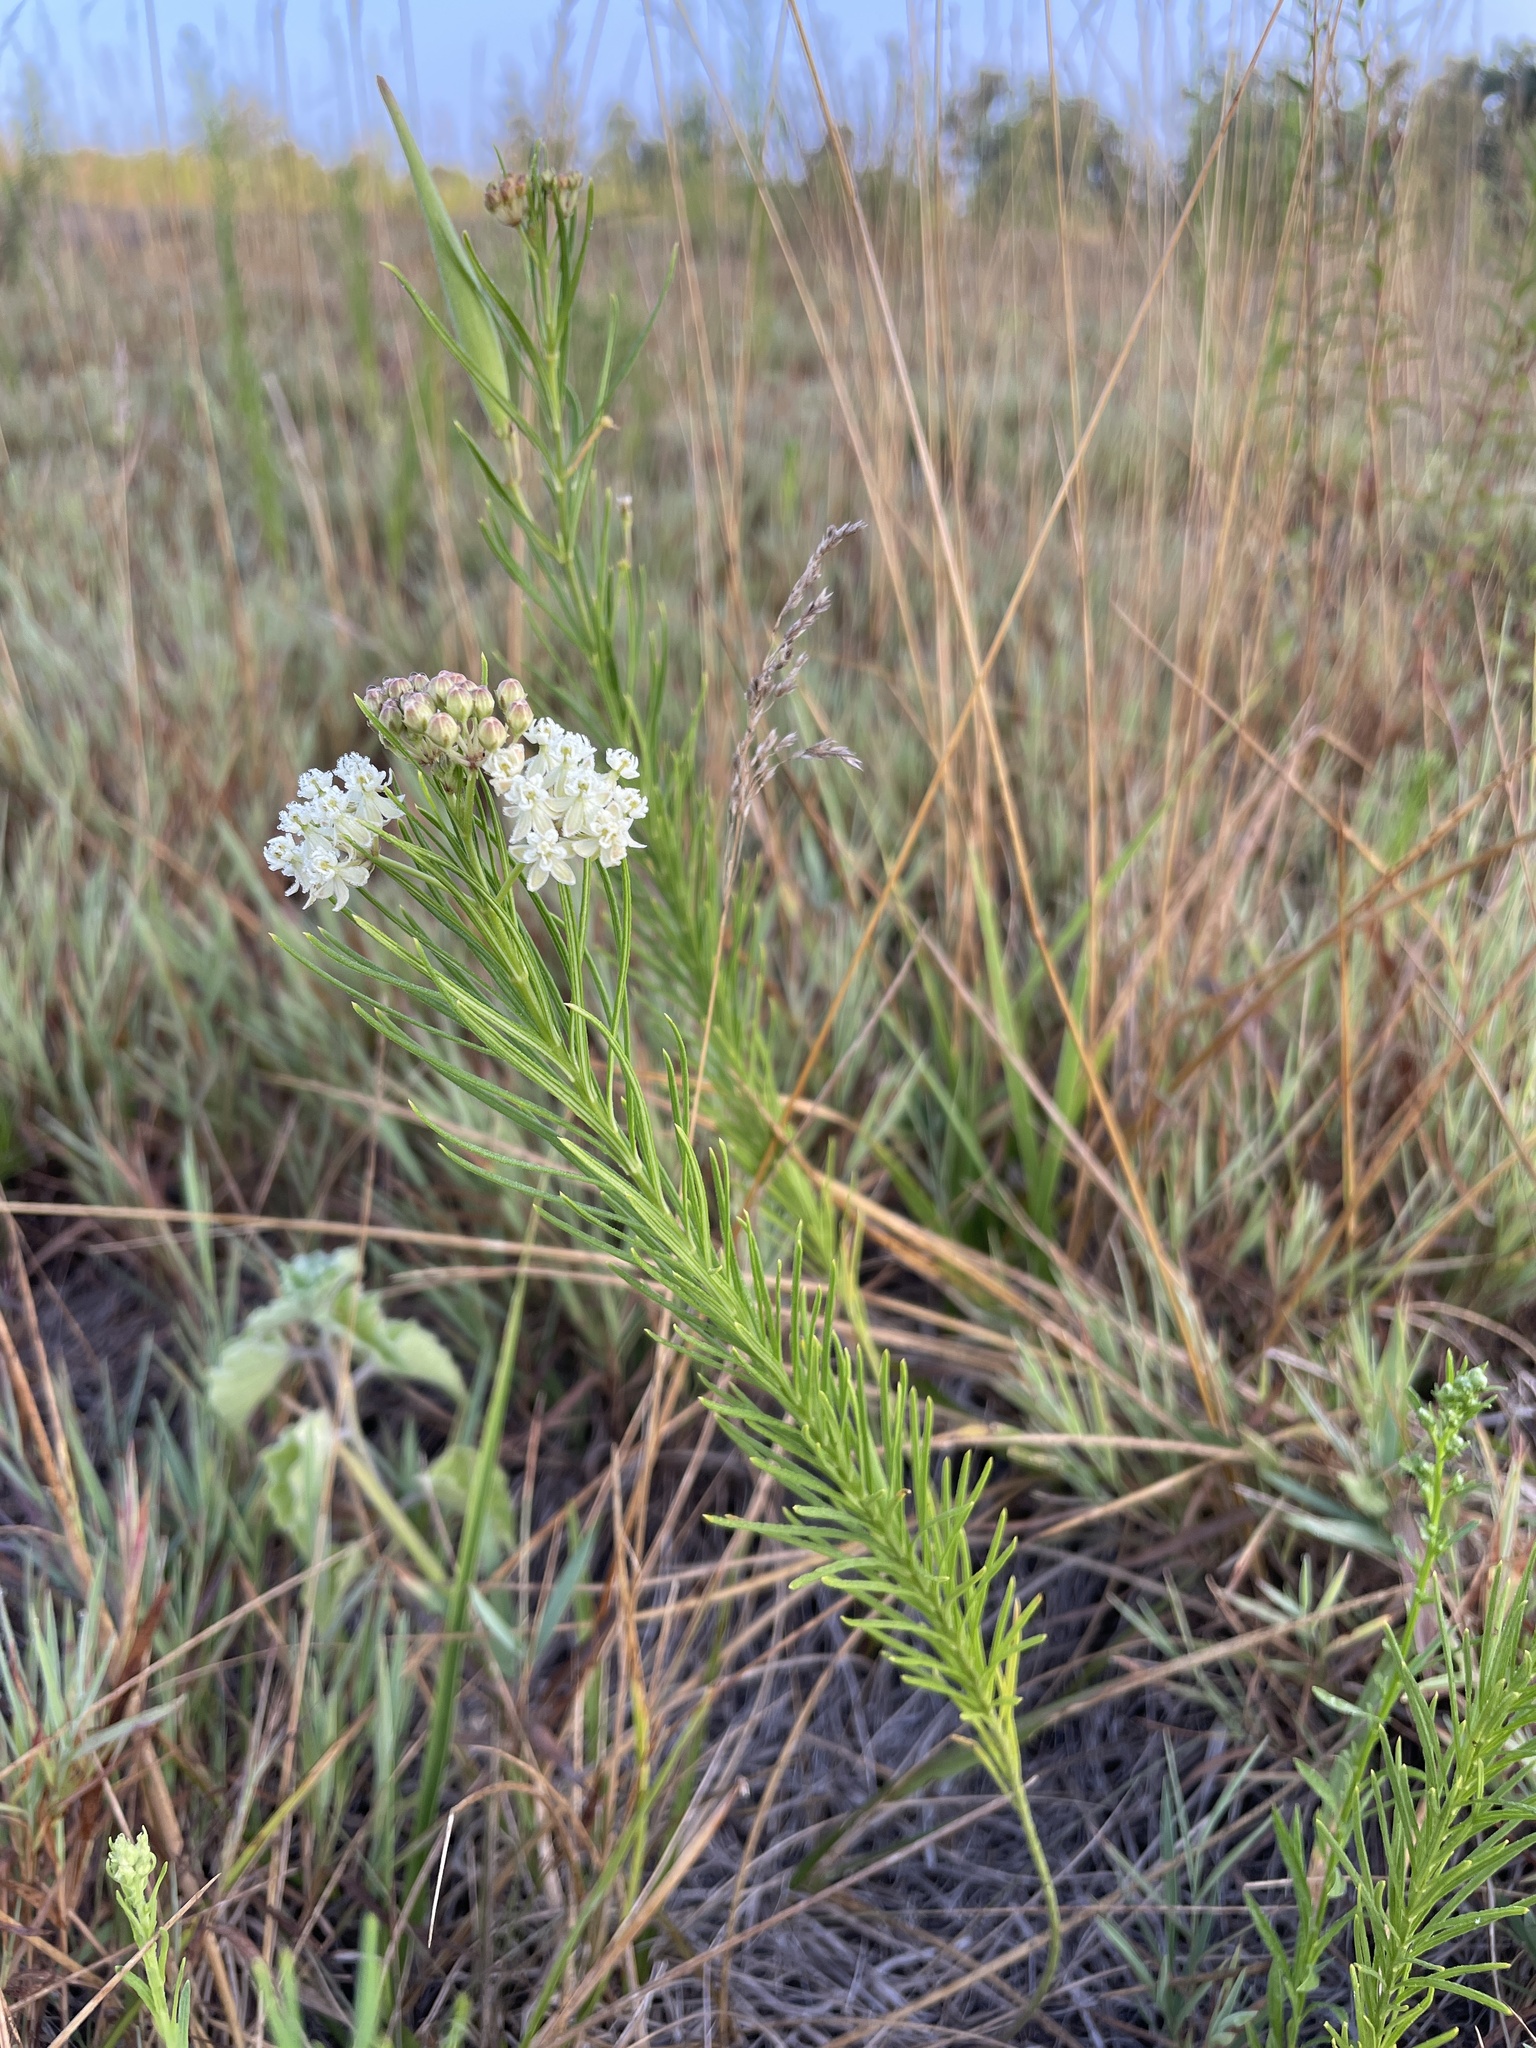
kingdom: Plantae
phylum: Tracheophyta
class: Magnoliopsida
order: Gentianales
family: Apocynaceae
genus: Asclepias
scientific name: Asclepias verticillata
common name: Eastern whorled milkweed
